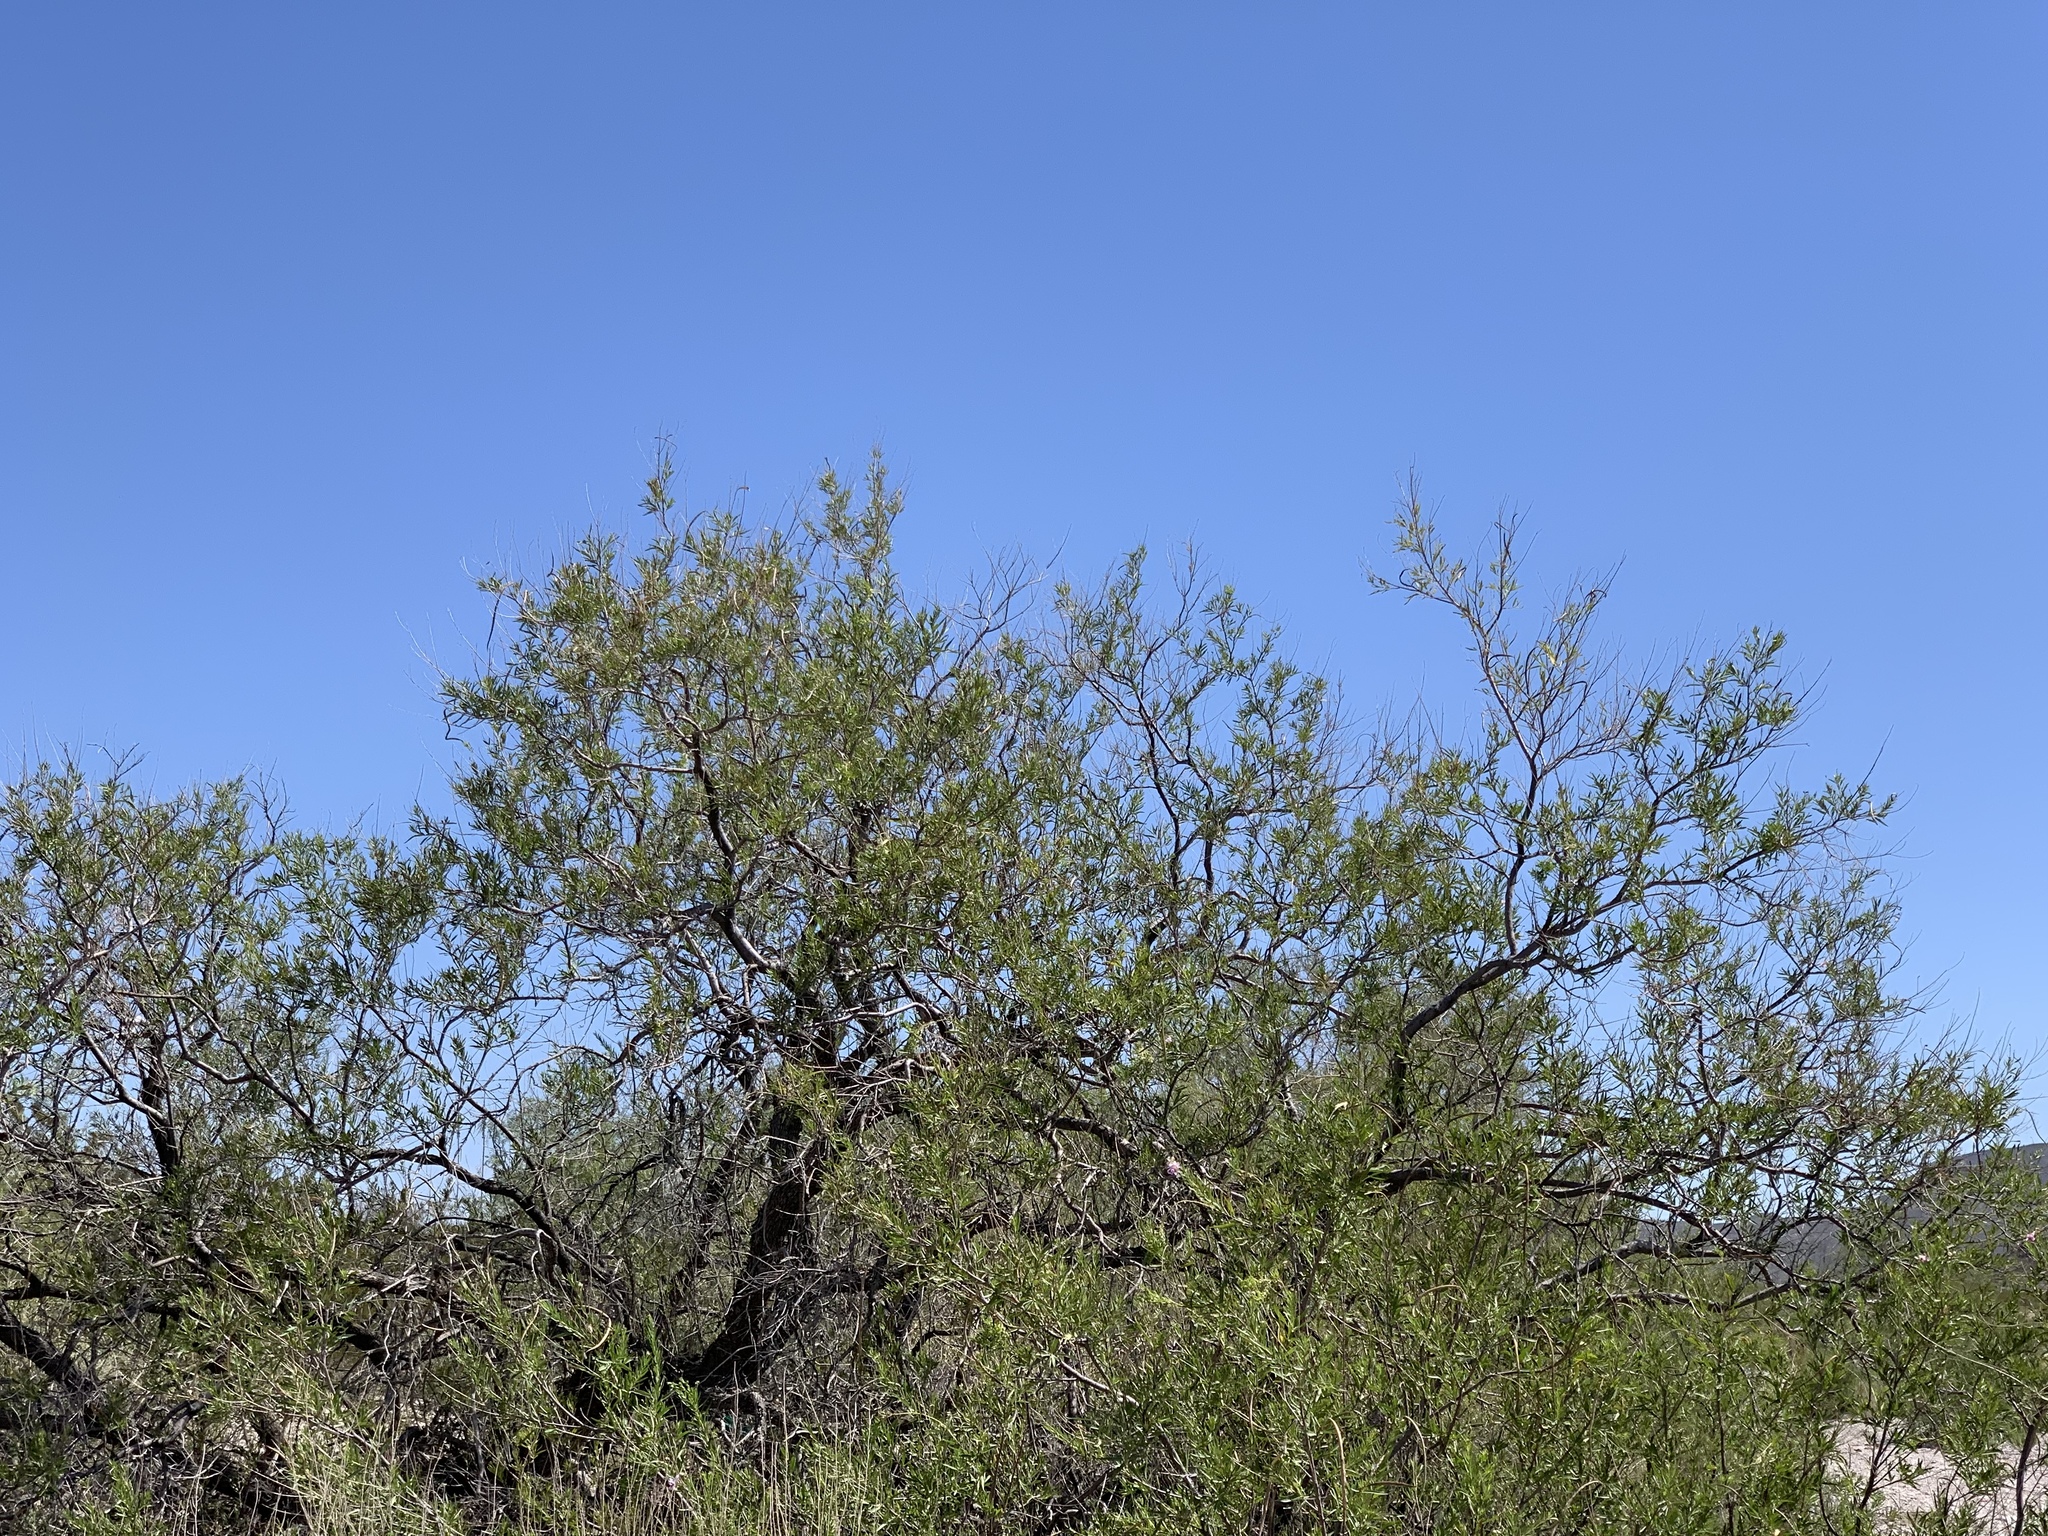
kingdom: Plantae
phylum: Tracheophyta
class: Magnoliopsida
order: Lamiales
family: Bignoniaceae
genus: Chilopsis
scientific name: Chilopsis linearis
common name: Desert-willow
